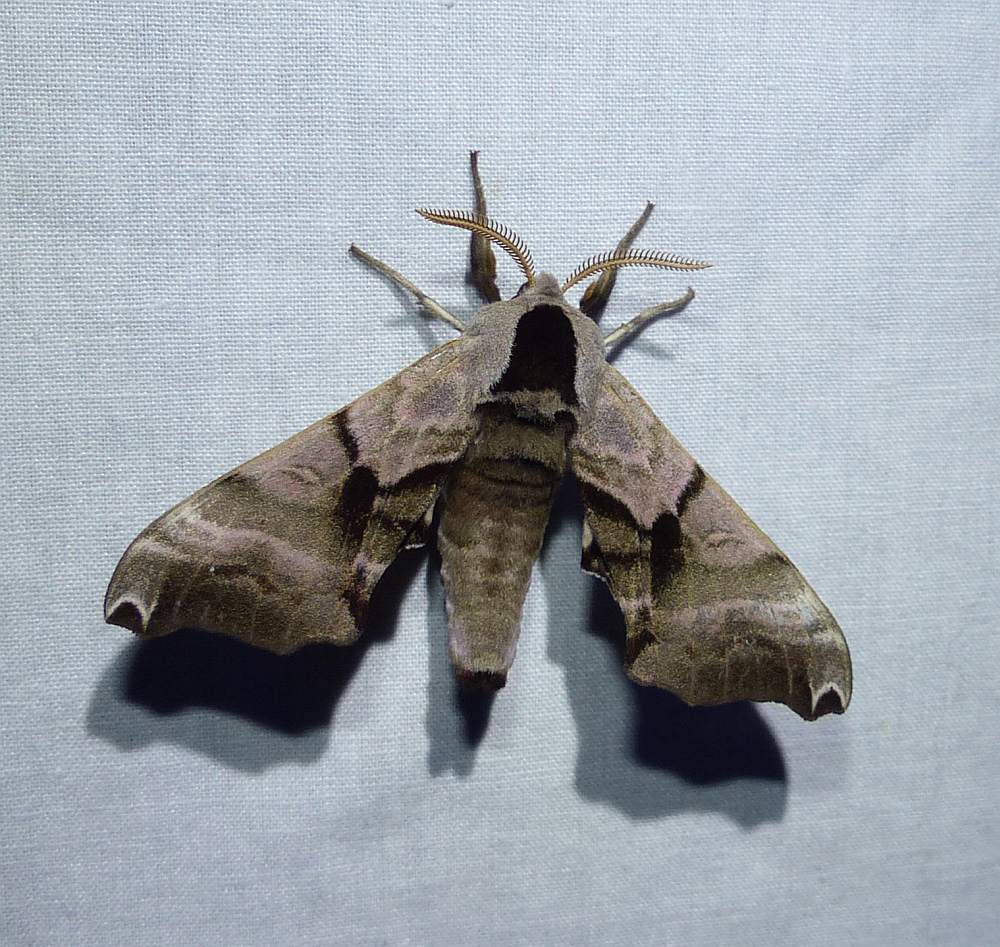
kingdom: Animalia
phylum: Arthropoda
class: Insecta
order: Lepidoptera
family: Sphingidae
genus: Smerinthus
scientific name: Smerinthus jamaicensis
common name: Twin spotted sphinx
